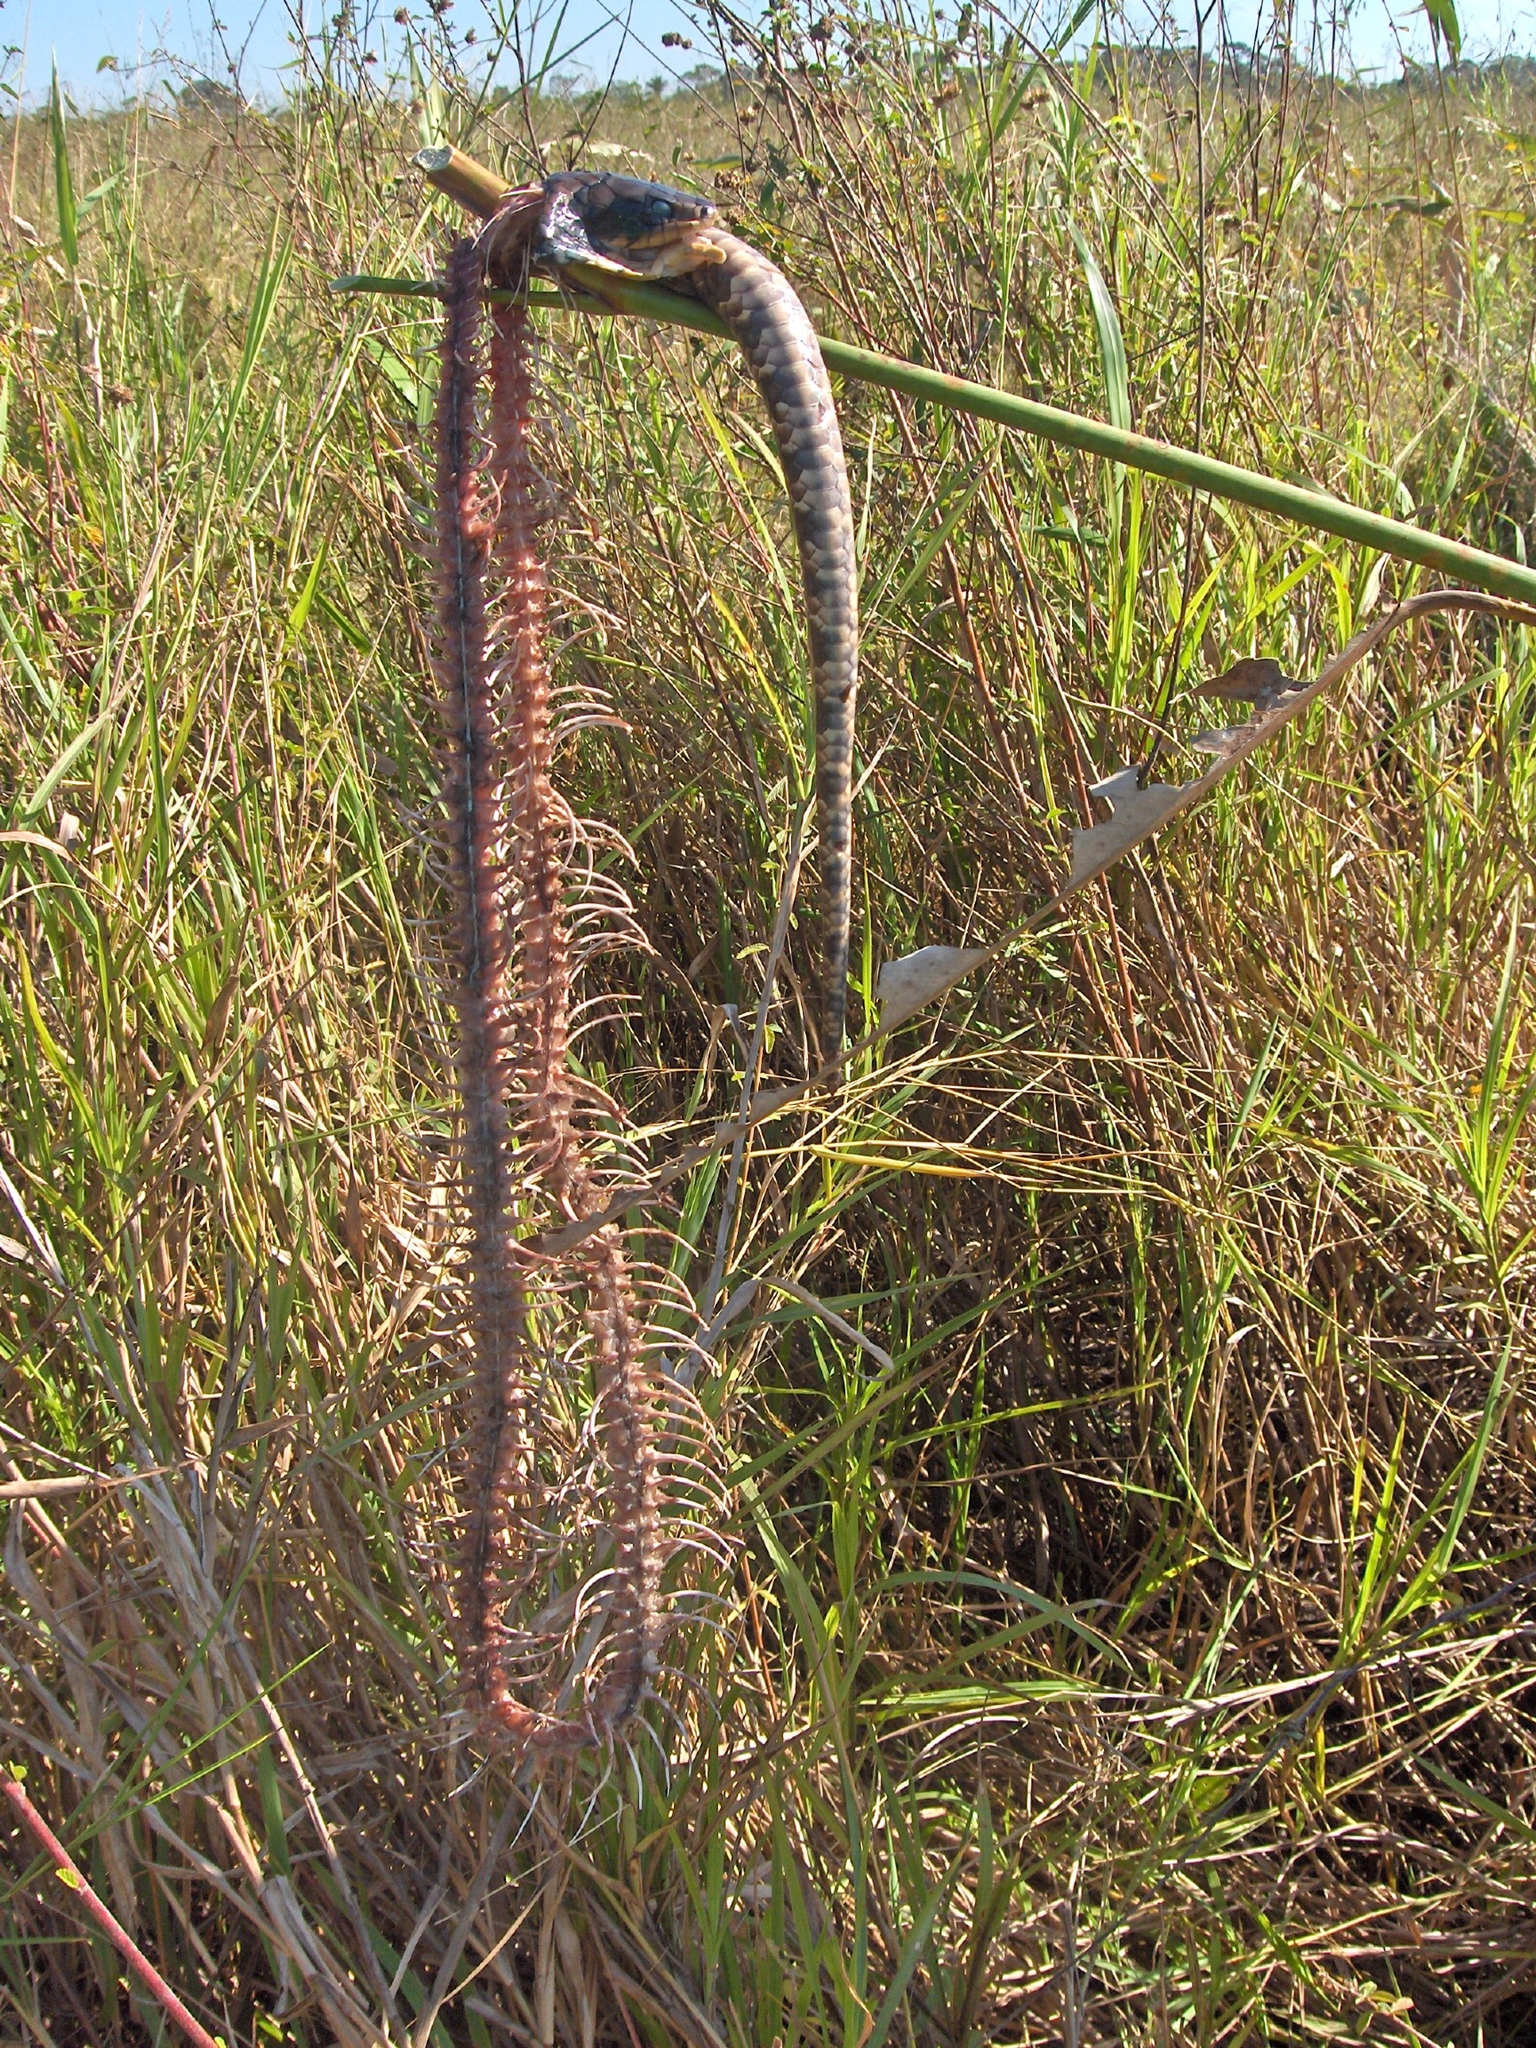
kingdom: Animalia
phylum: Chordata
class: Squamata
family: Colubridae
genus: Hydrodynastes
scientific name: Hydrodynastes gigas
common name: False water cobra
